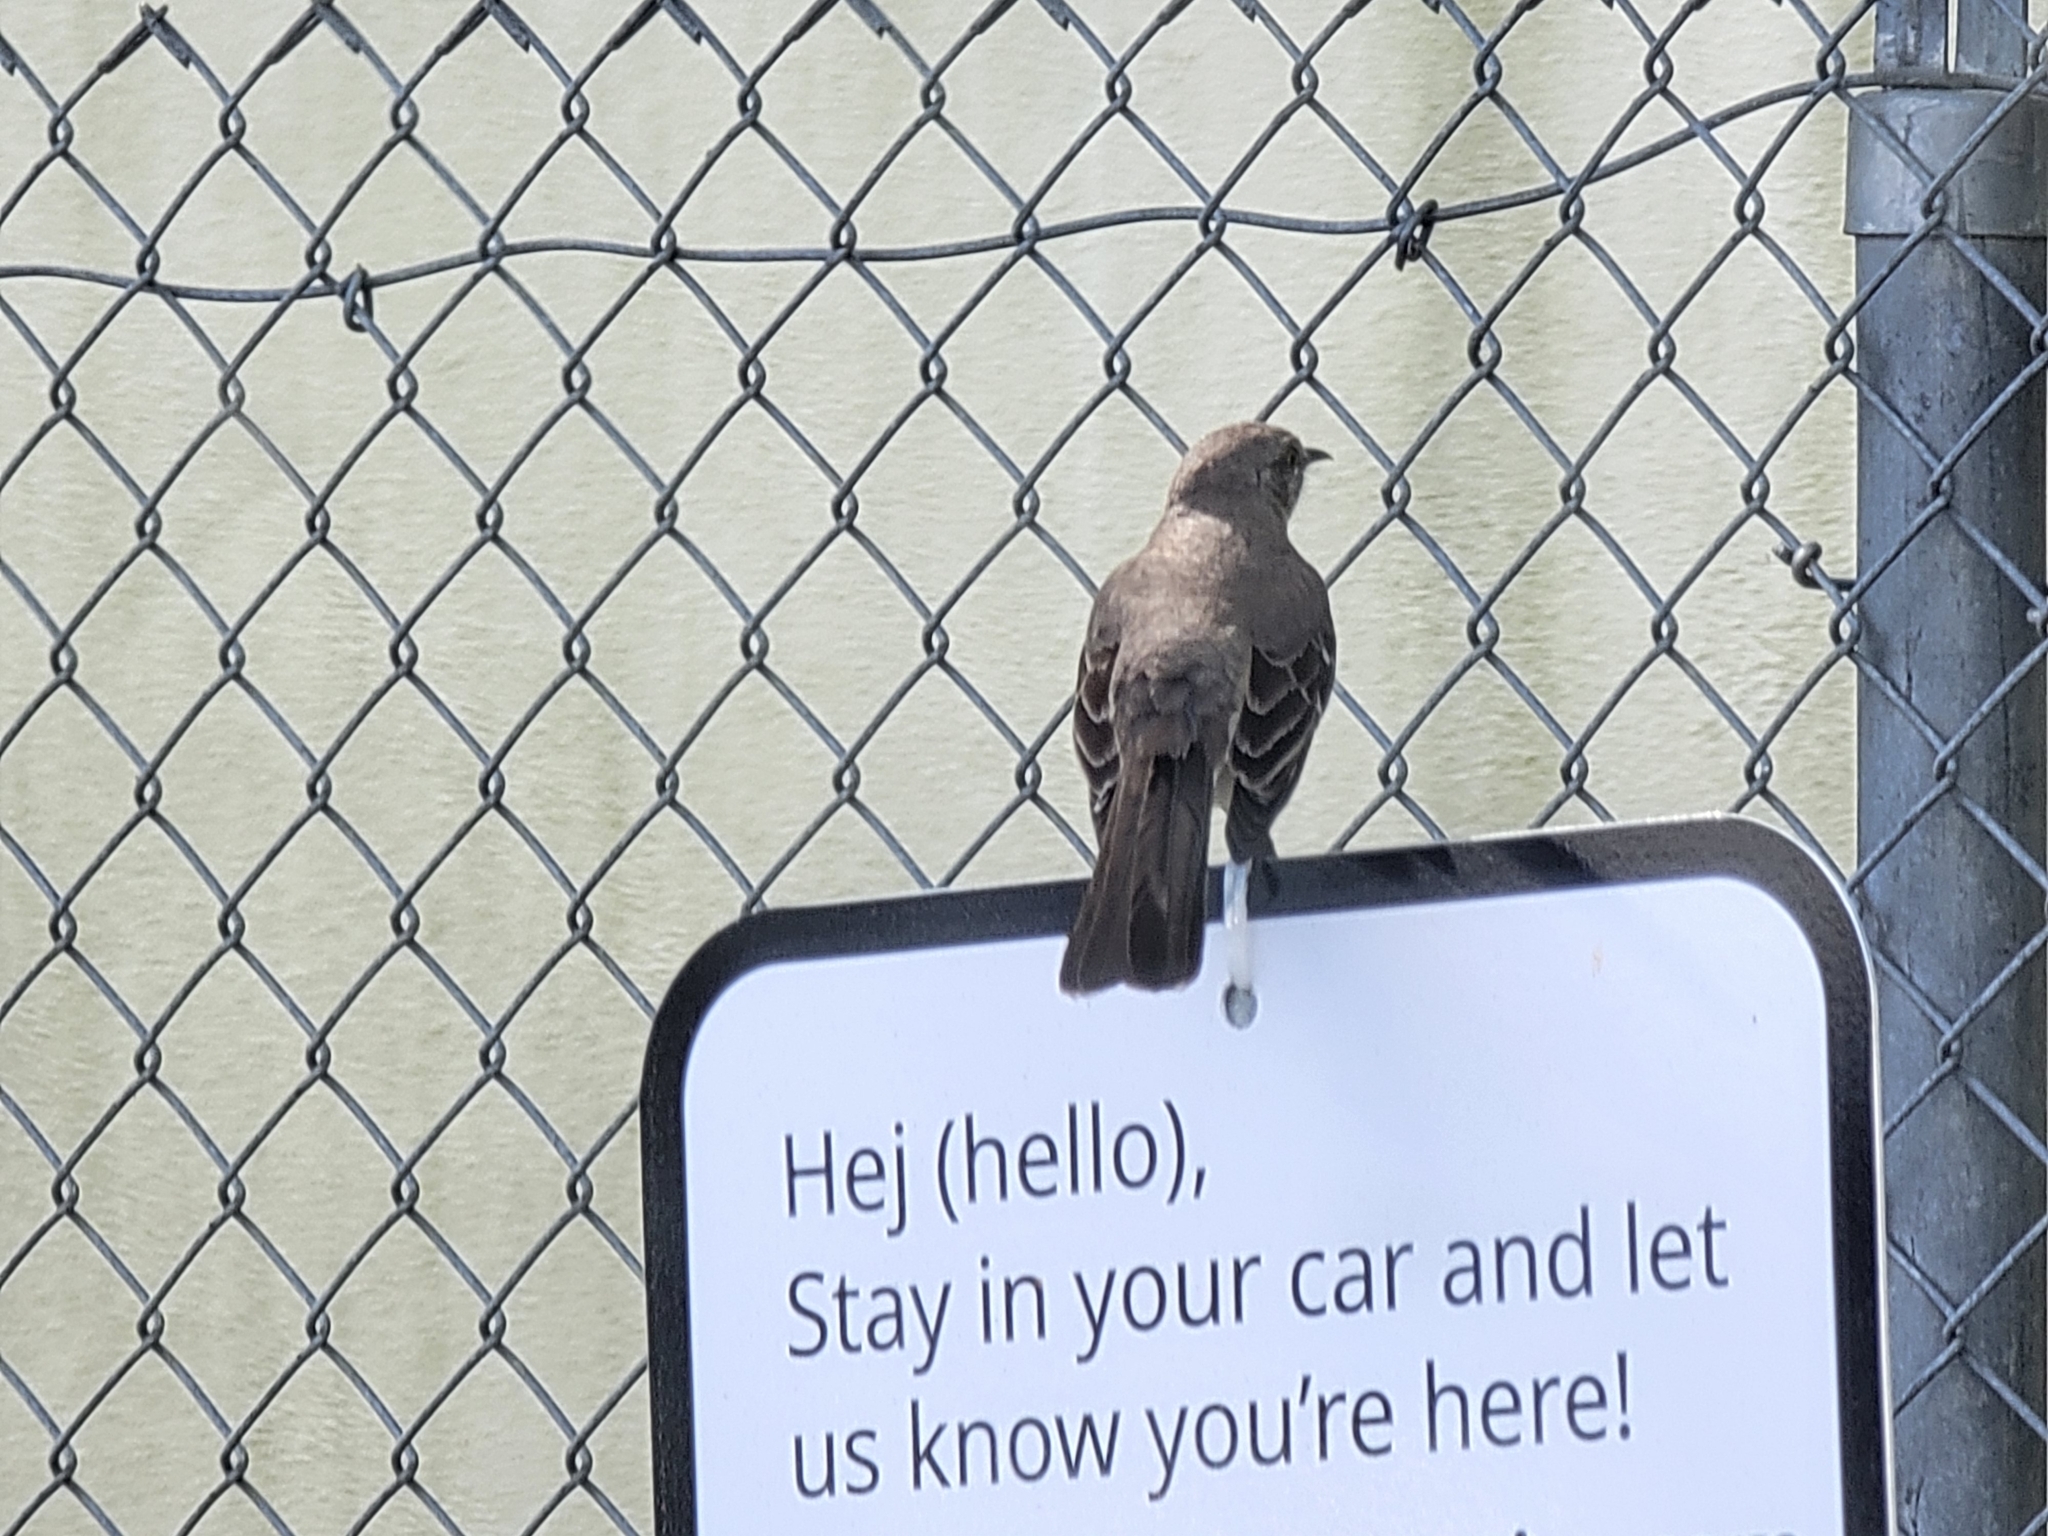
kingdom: Animalia
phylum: Chordata
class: Aves
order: Passeriformes
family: Mimidae
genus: Mimus
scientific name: Mimus polyglottos
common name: Northern mockingbird
